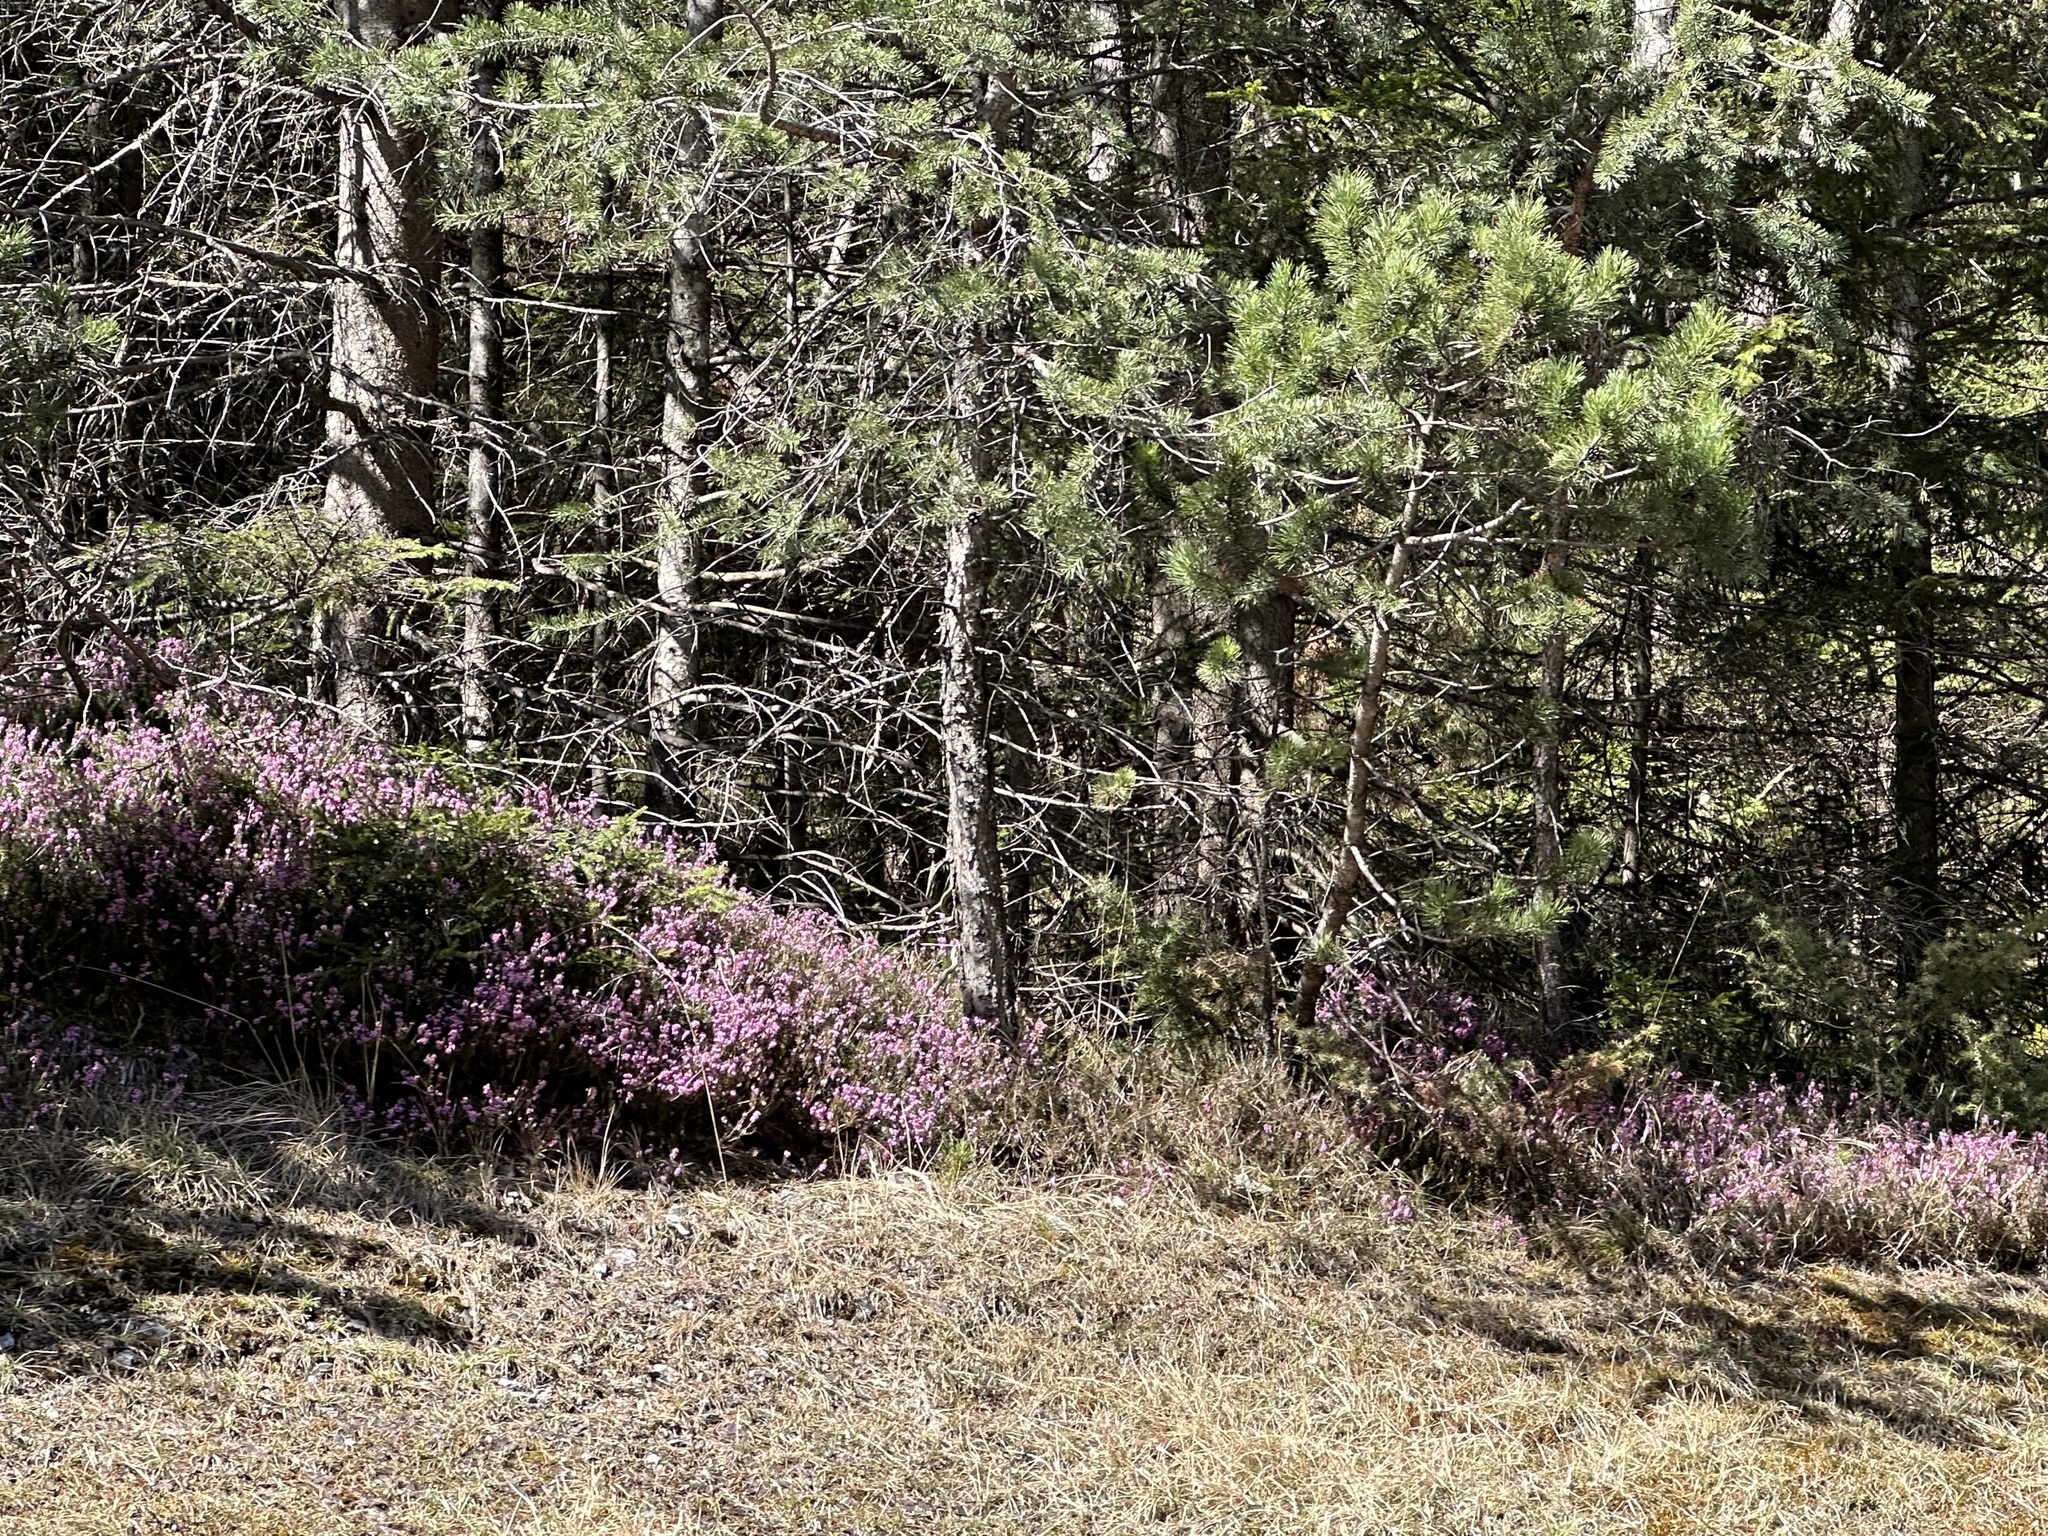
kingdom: Plantae
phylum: Tracheophyta
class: Magnoliopsida
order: Ericales
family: Ericaceae
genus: Erica
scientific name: Erica carnea
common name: Winter heath
